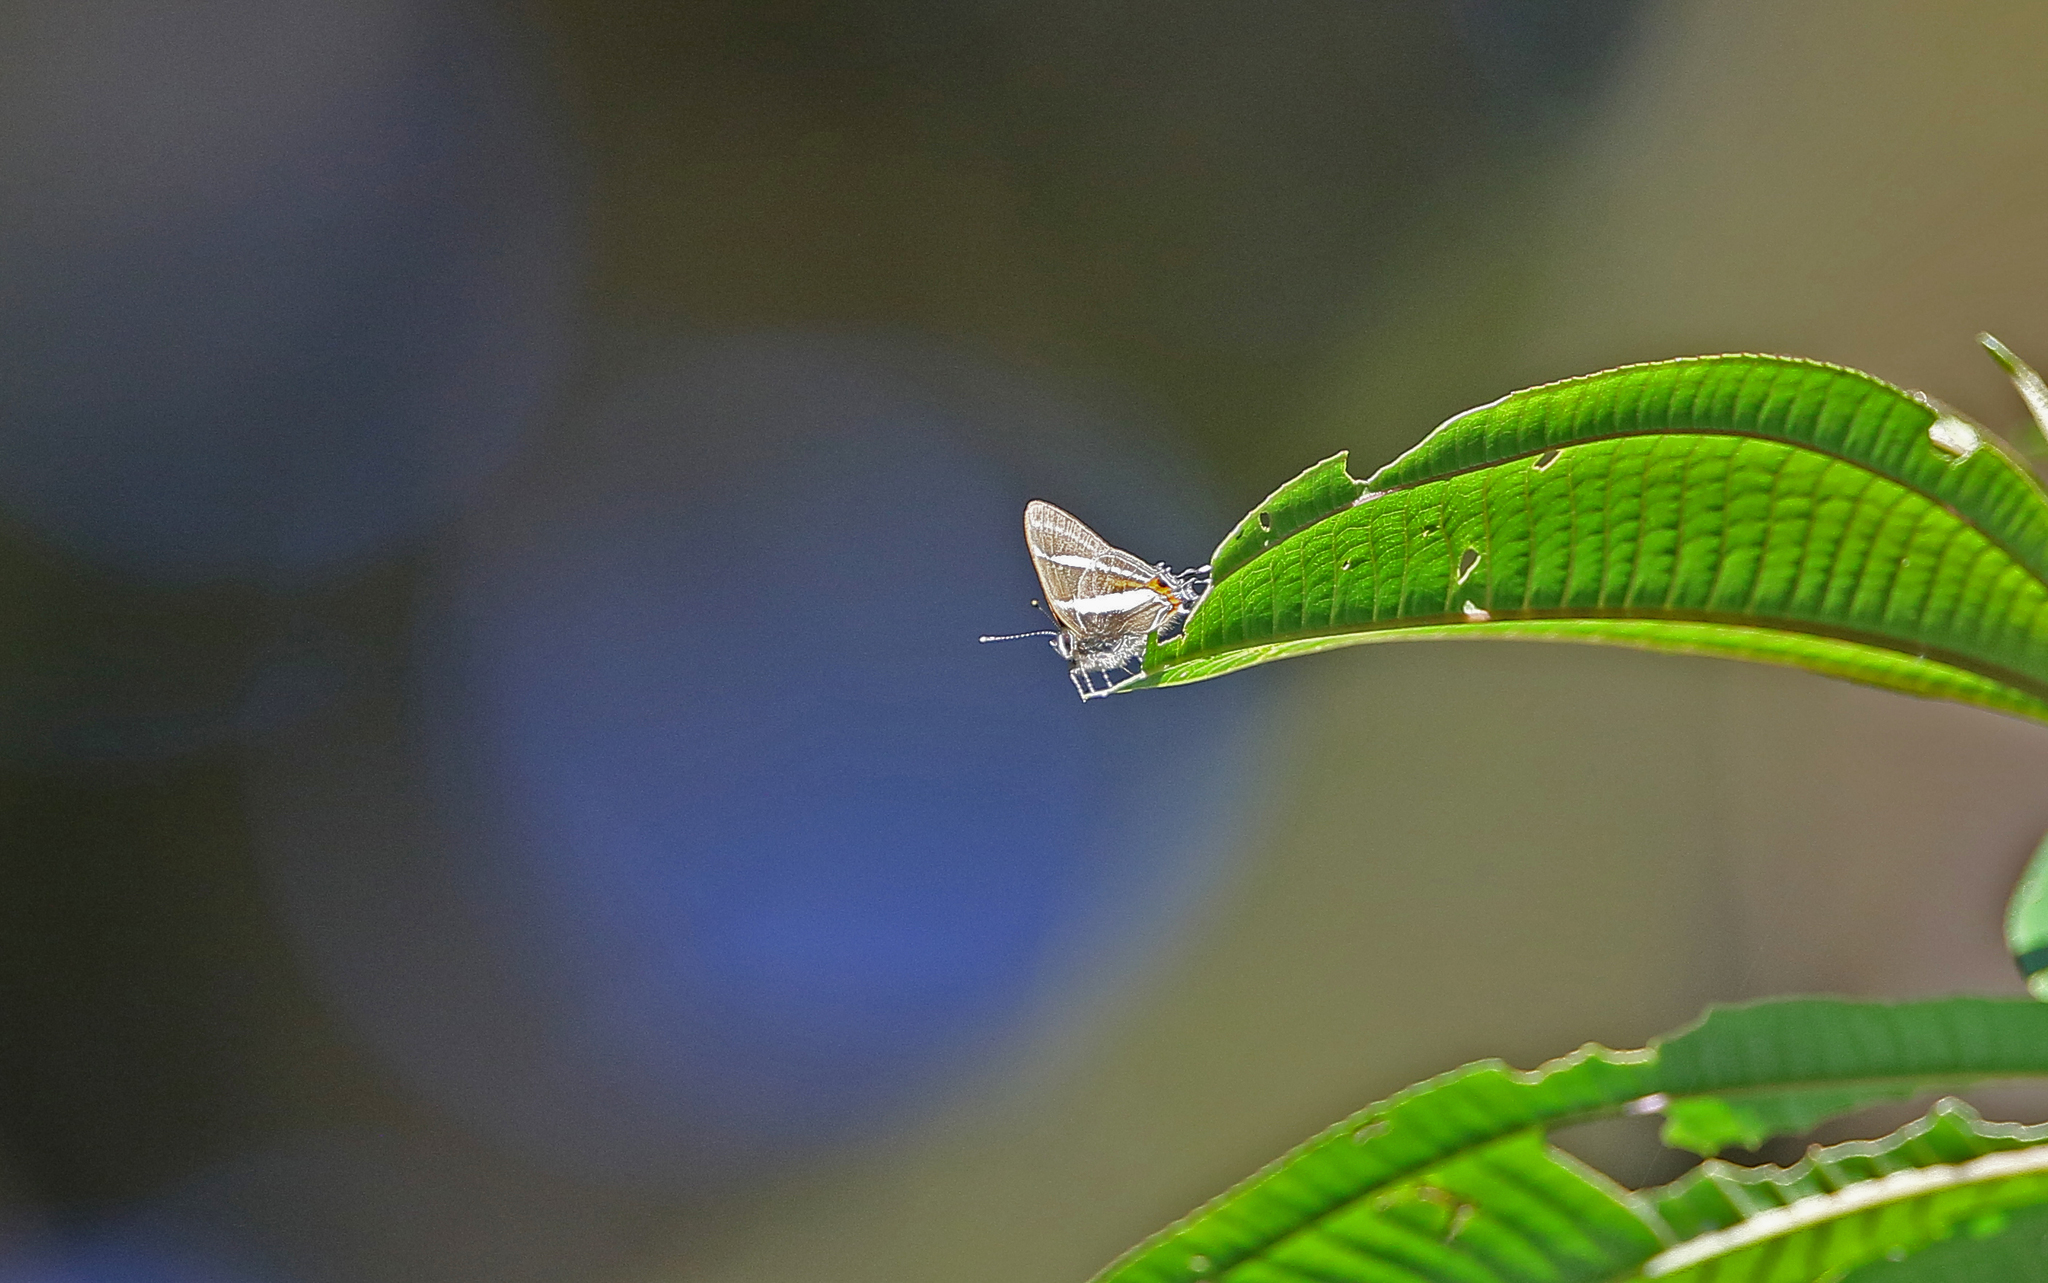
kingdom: Animalia
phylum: Arthropoda
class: Insecta
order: Lepidoptera
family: Lycaenidae
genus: Lamprospilus
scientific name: Lamprospilus nicetus
